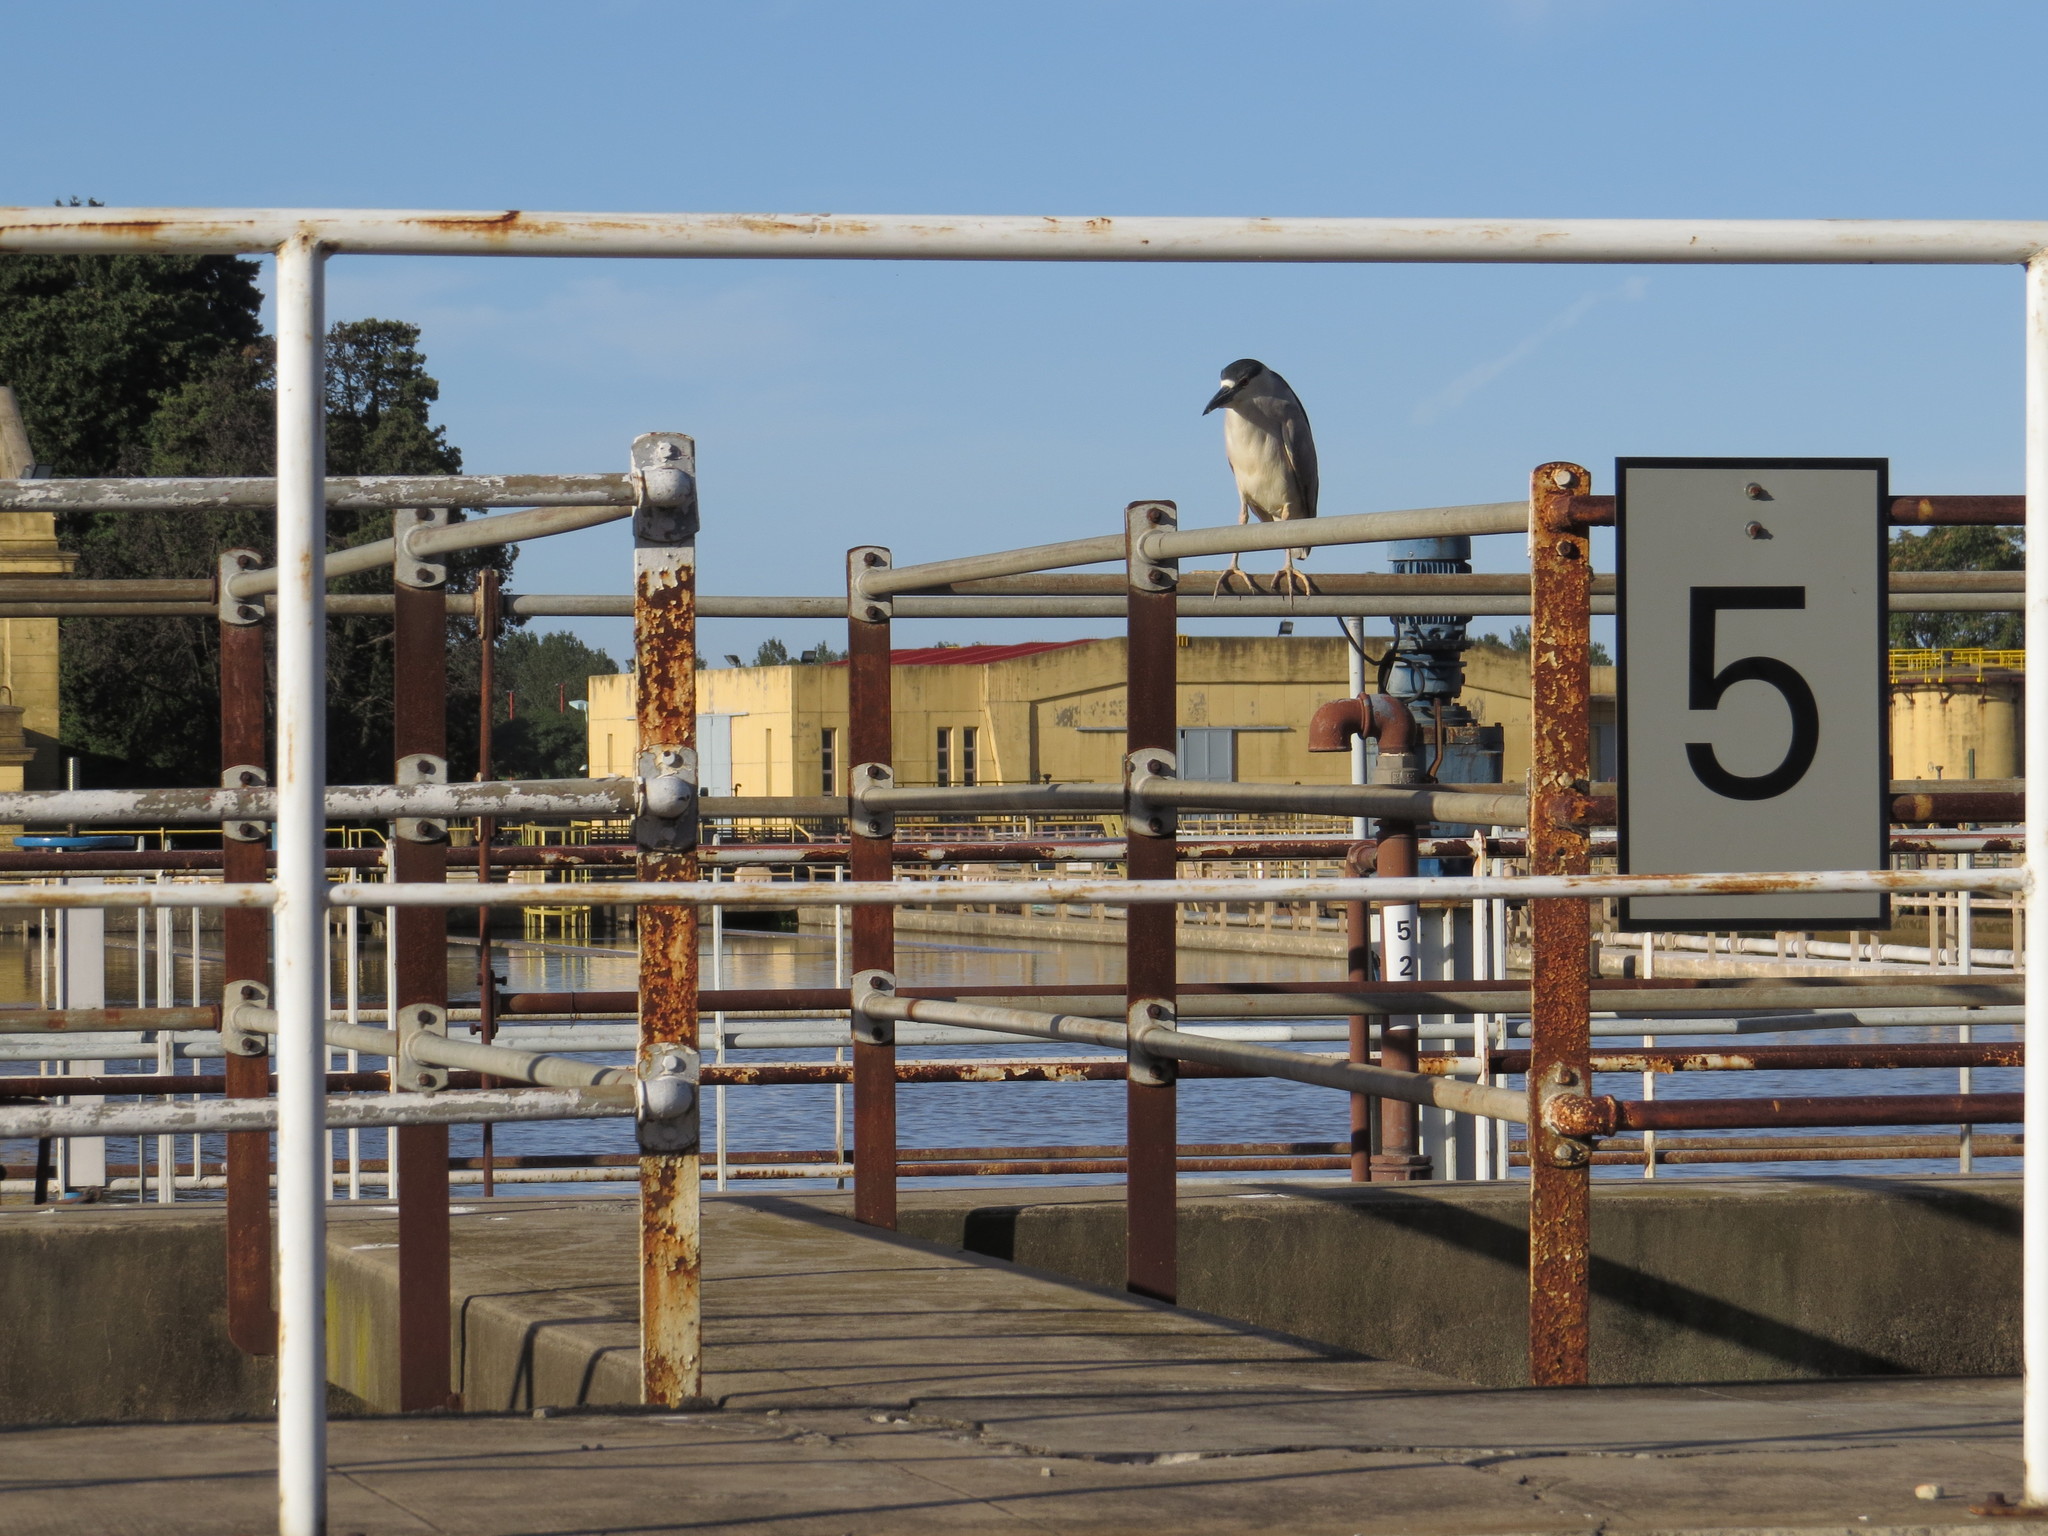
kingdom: Animalia
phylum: Chordata
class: Aves
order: Pelecaniformes
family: Ardeidae
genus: Nycticorax
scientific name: Nycticorax nycticorax
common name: Black-crowned night heron
